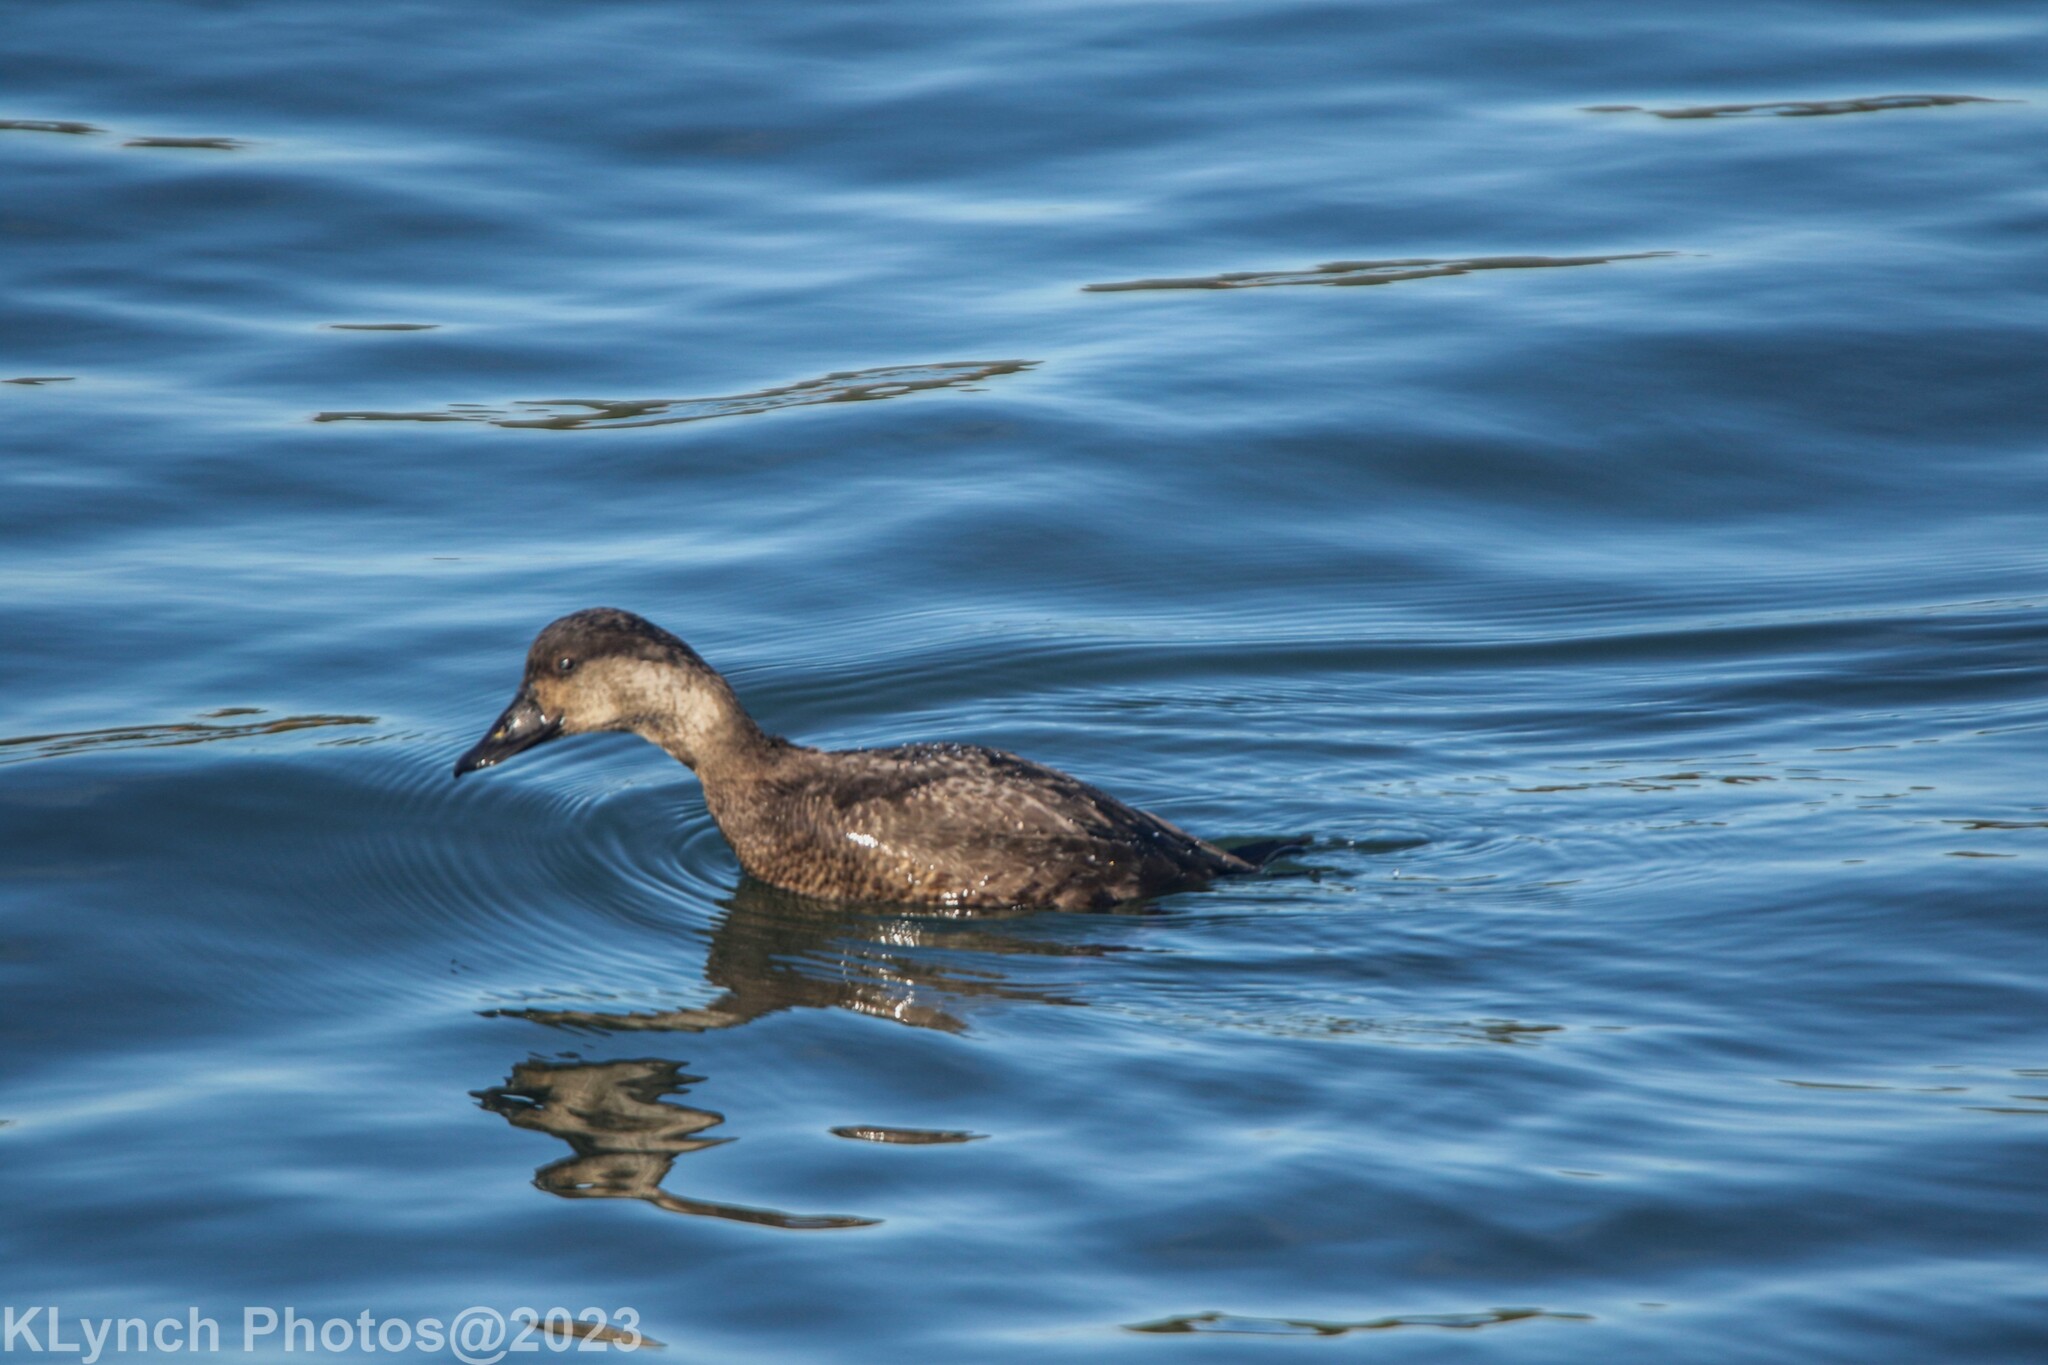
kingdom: Animalia
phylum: Chordata
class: Aves
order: Anseriformes
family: Anatidae
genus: Melanitta
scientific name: Melanitta americana
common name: Black scoter
